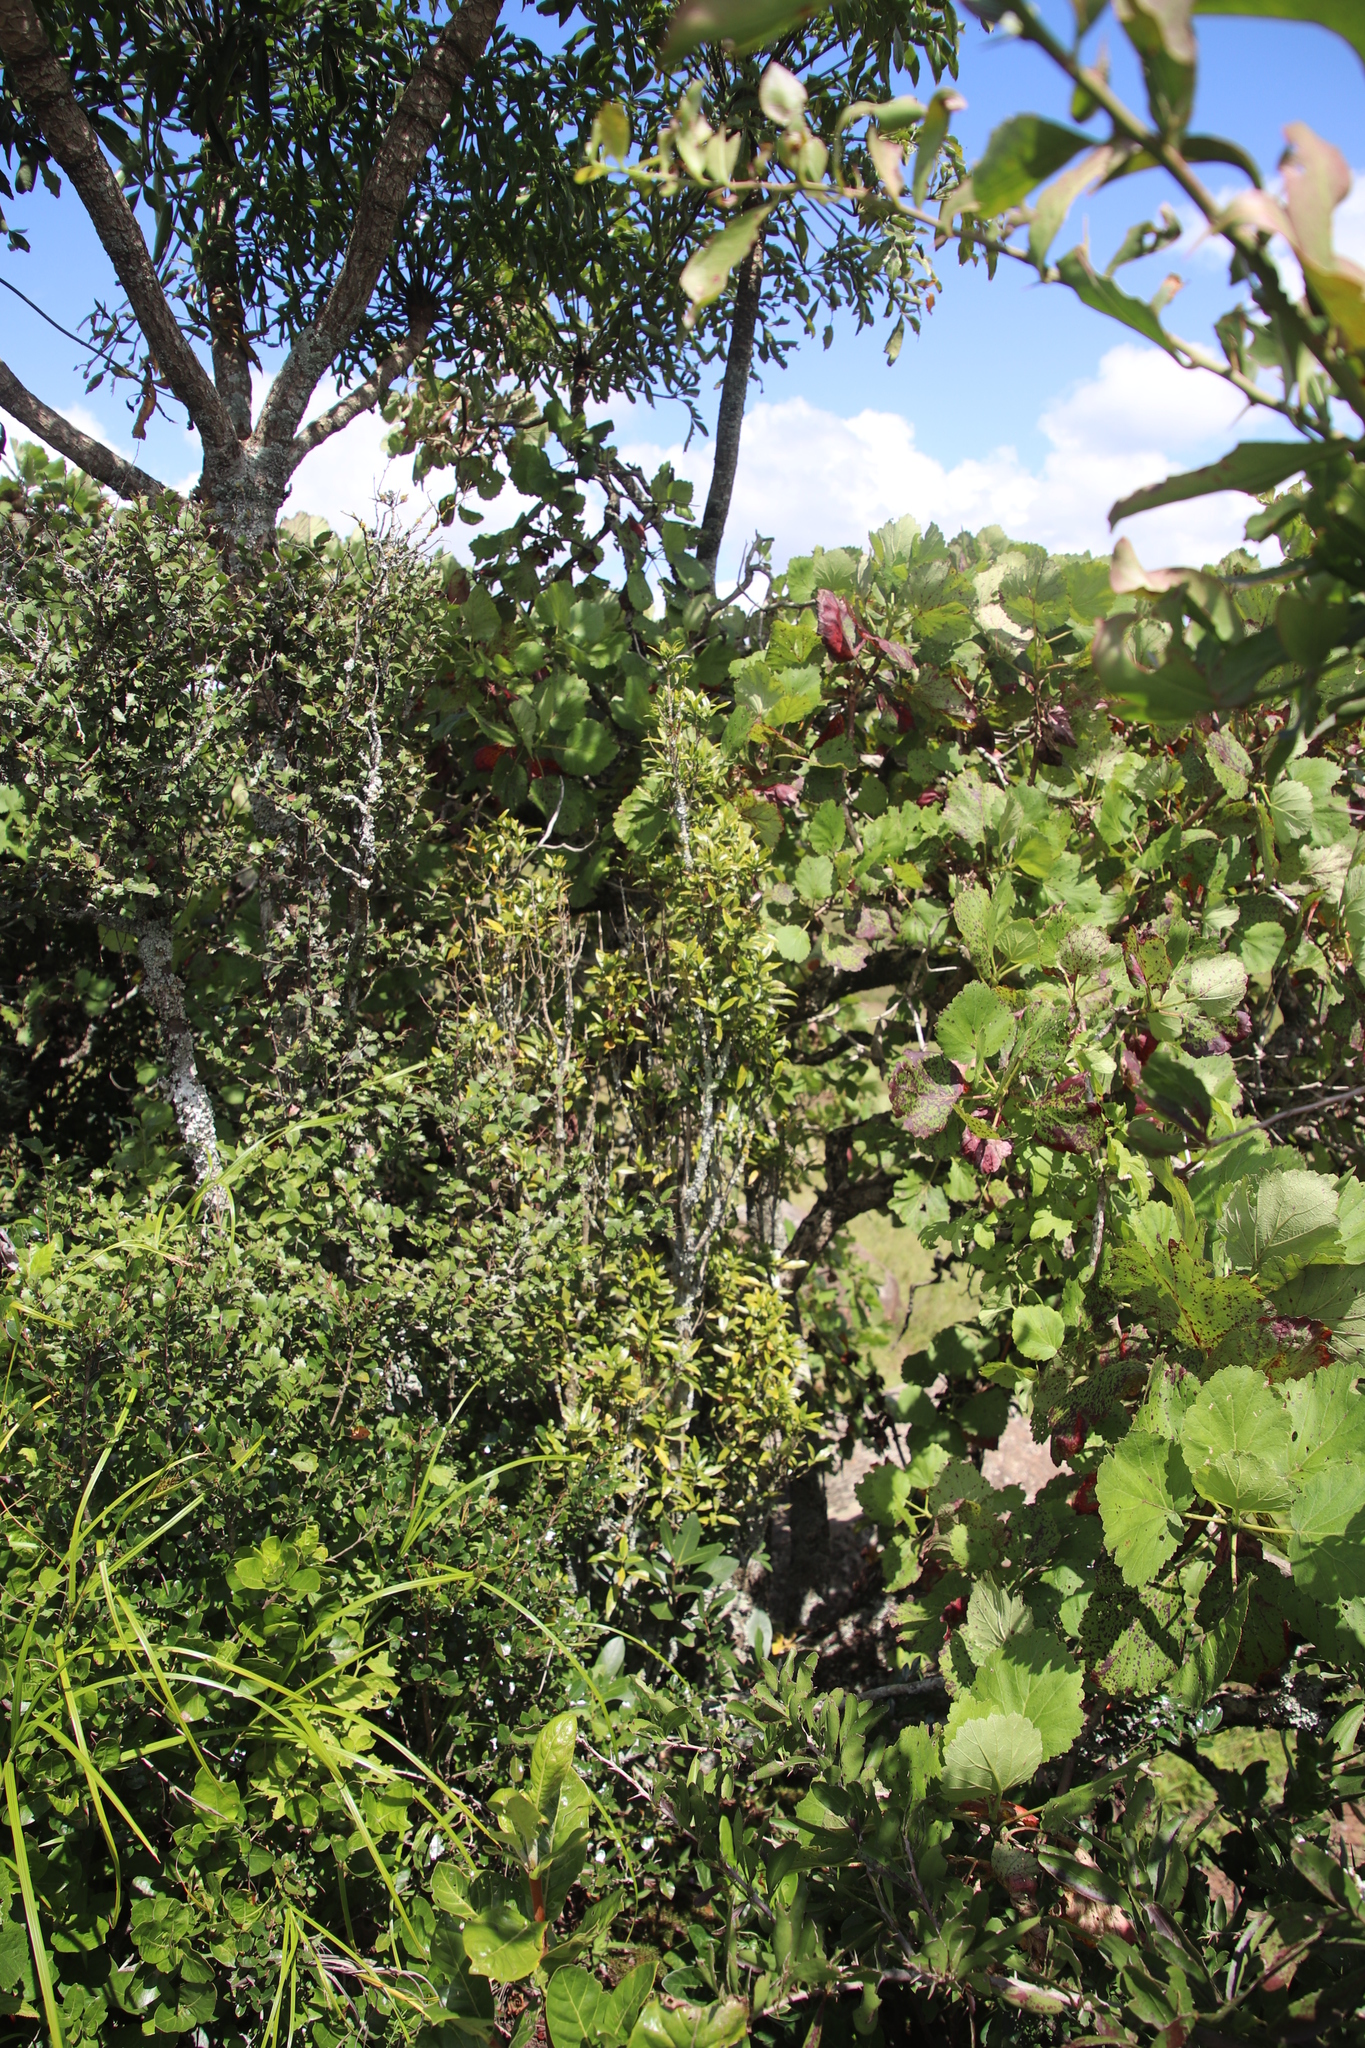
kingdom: Plantae
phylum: Tracheophyta
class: Magnoliopsida
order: Gentianales
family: Rubiaceae
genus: Empogona
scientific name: Empogona lanceolata
